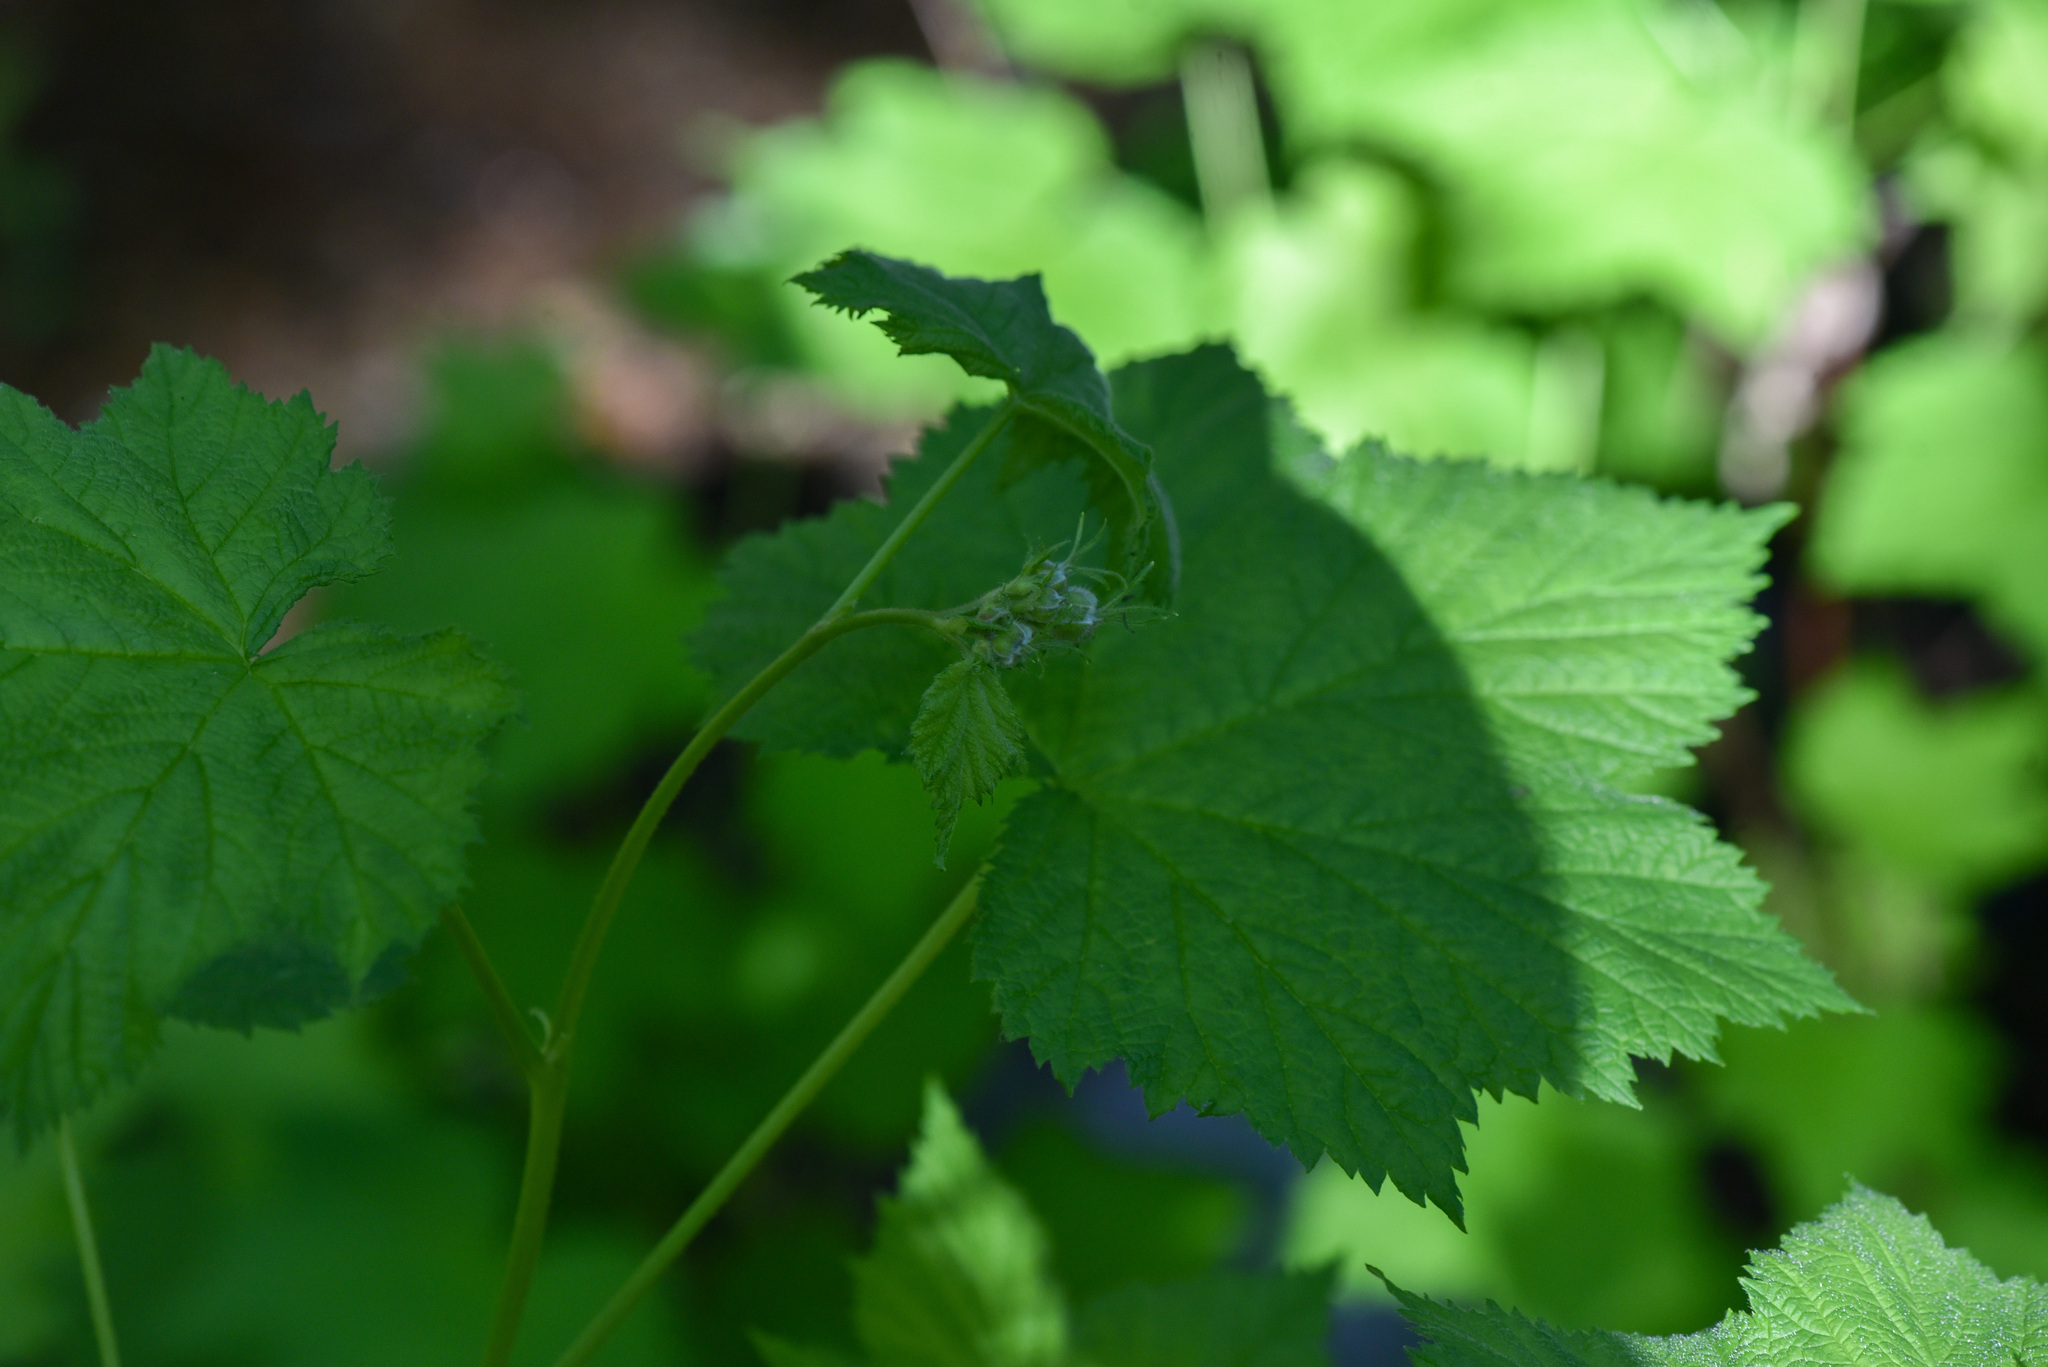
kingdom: Plantae
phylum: Tracheophyta
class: Magnoliopsida
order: Rosales
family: Rosaceae
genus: Rubus
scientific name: Rubus parviflorus
